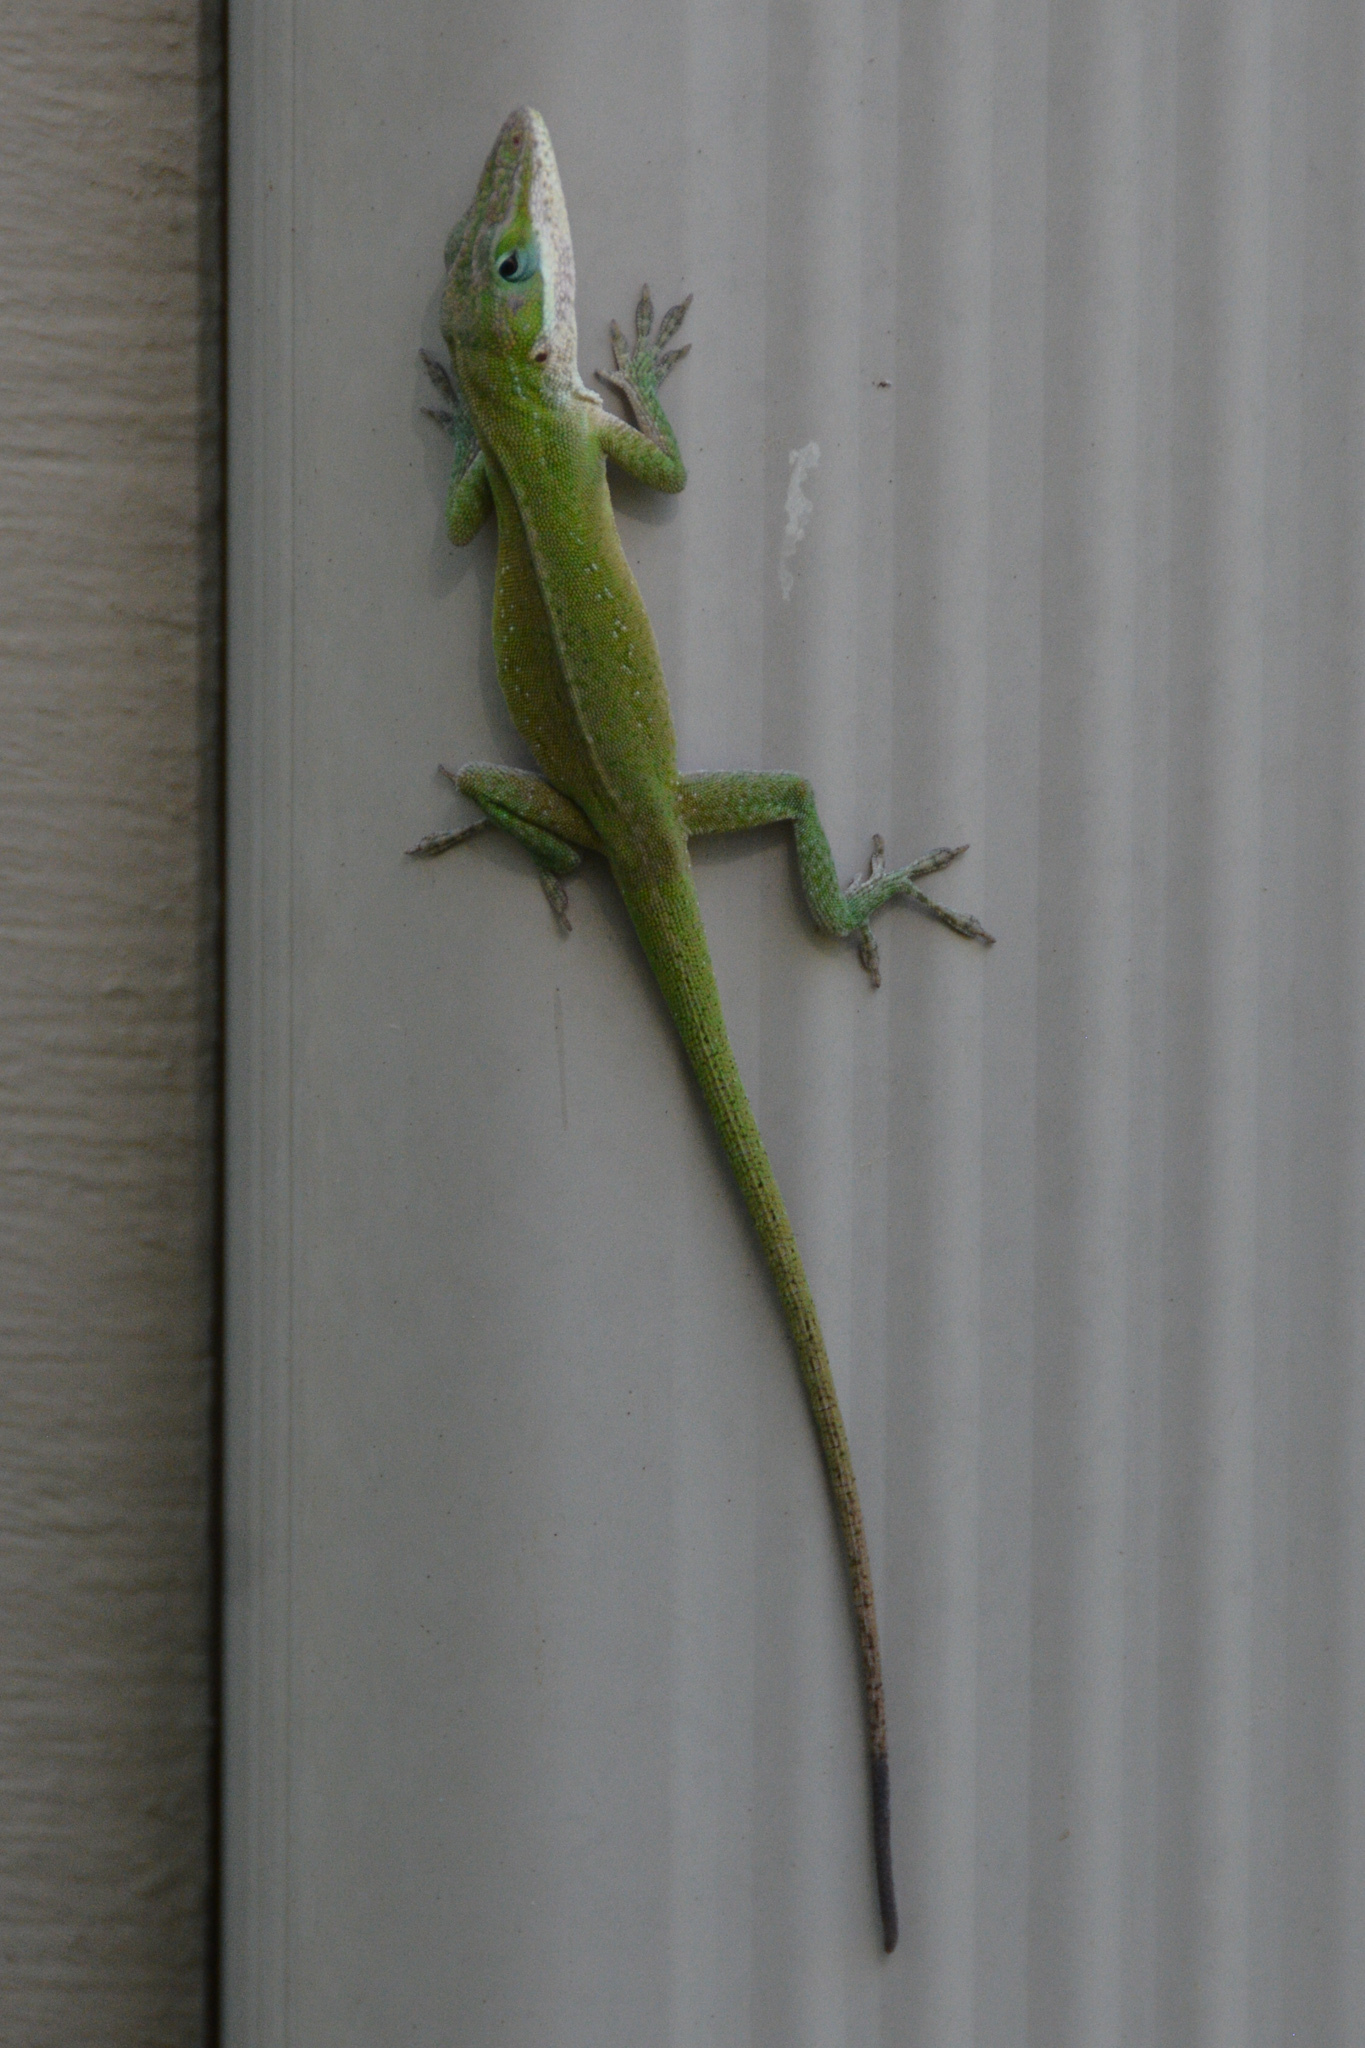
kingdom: Animalia
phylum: Chordata
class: Squamata
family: Dactyloidae
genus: Anolis
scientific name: Anolis carolinensis
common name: Green anole
